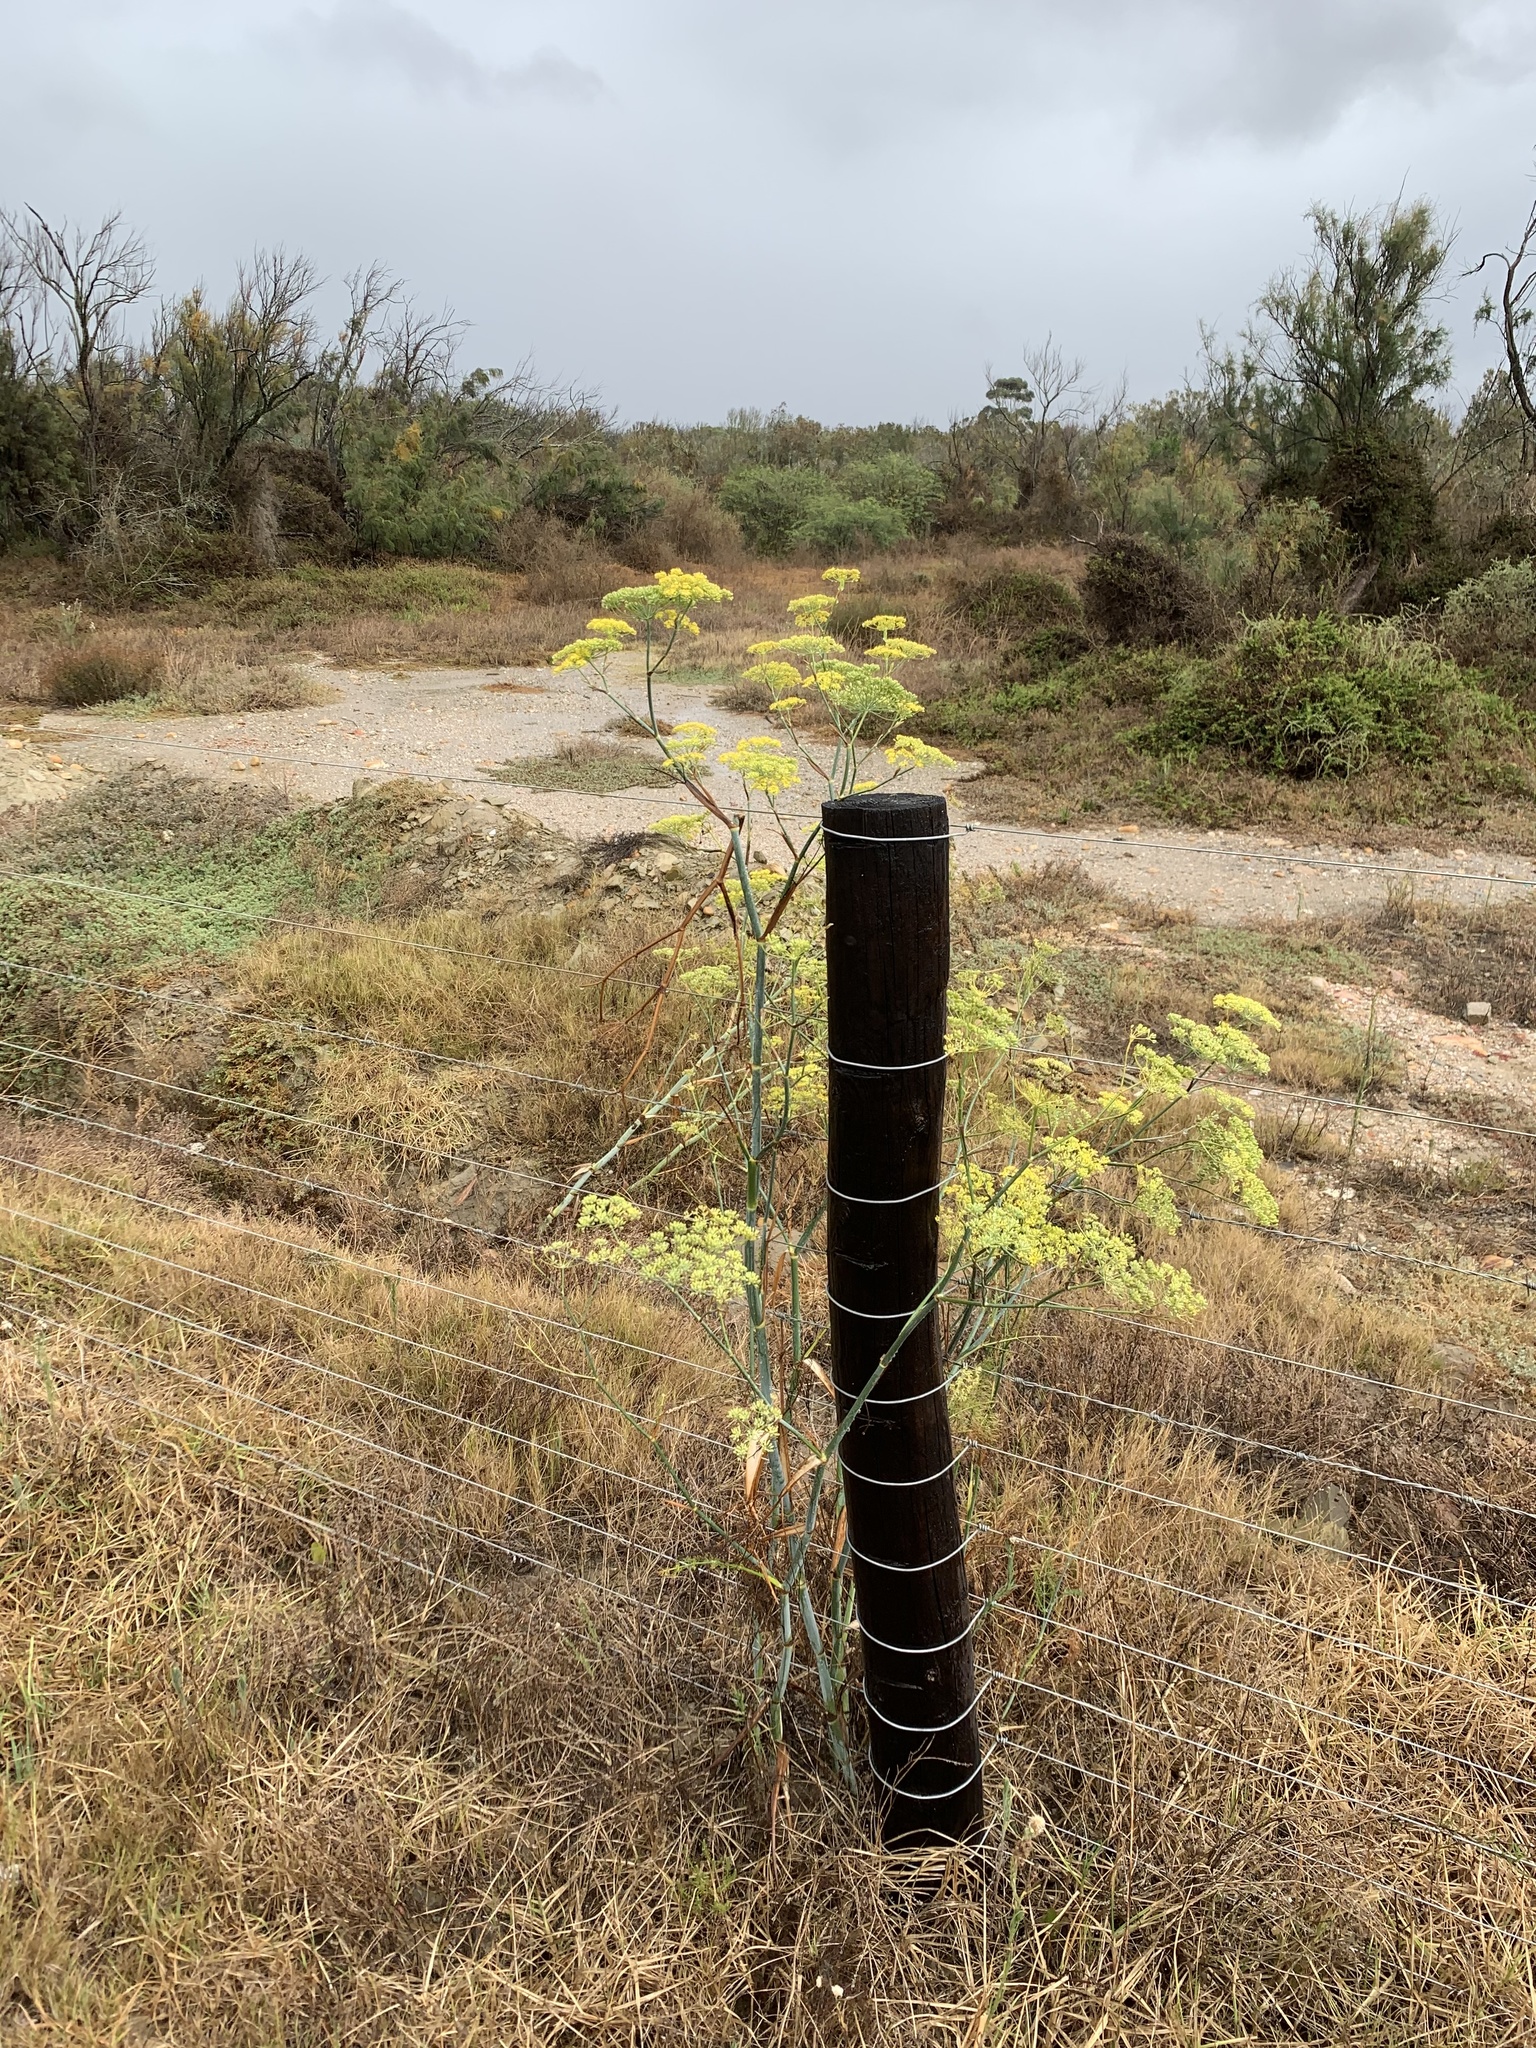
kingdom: Plantae
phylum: Tracheophyta
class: Magnoliopsida
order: Apiales
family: Apiaceae
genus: Foeniculum
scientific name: Foeniculum vulgare
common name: Fennel
